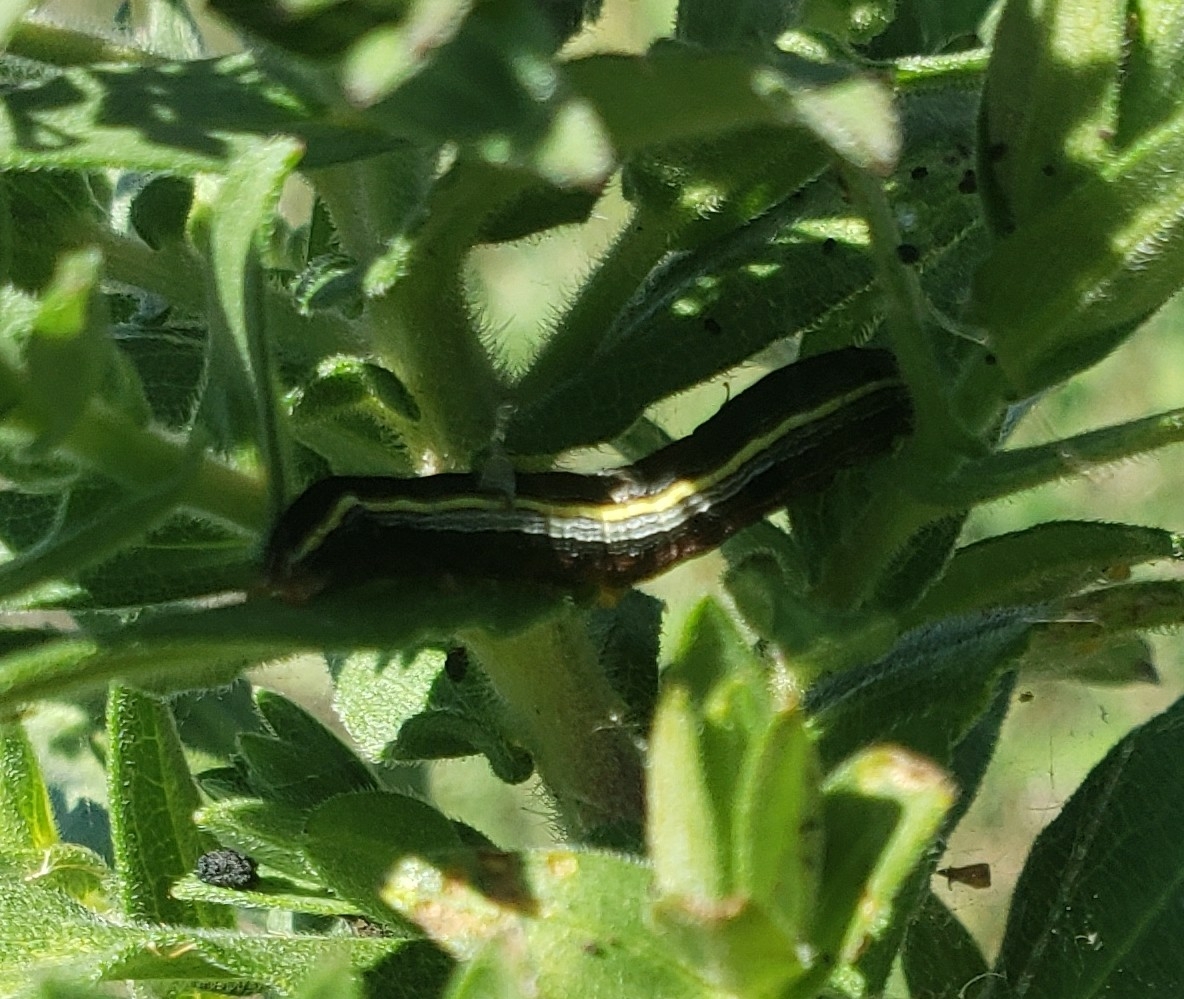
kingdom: Animalia
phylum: Arthropoda
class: Insecta
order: Lepidoptera
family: Noctuidae
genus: Spodoptera
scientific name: Spodoptera ornithogalli
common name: Yellow-striped armyworm
